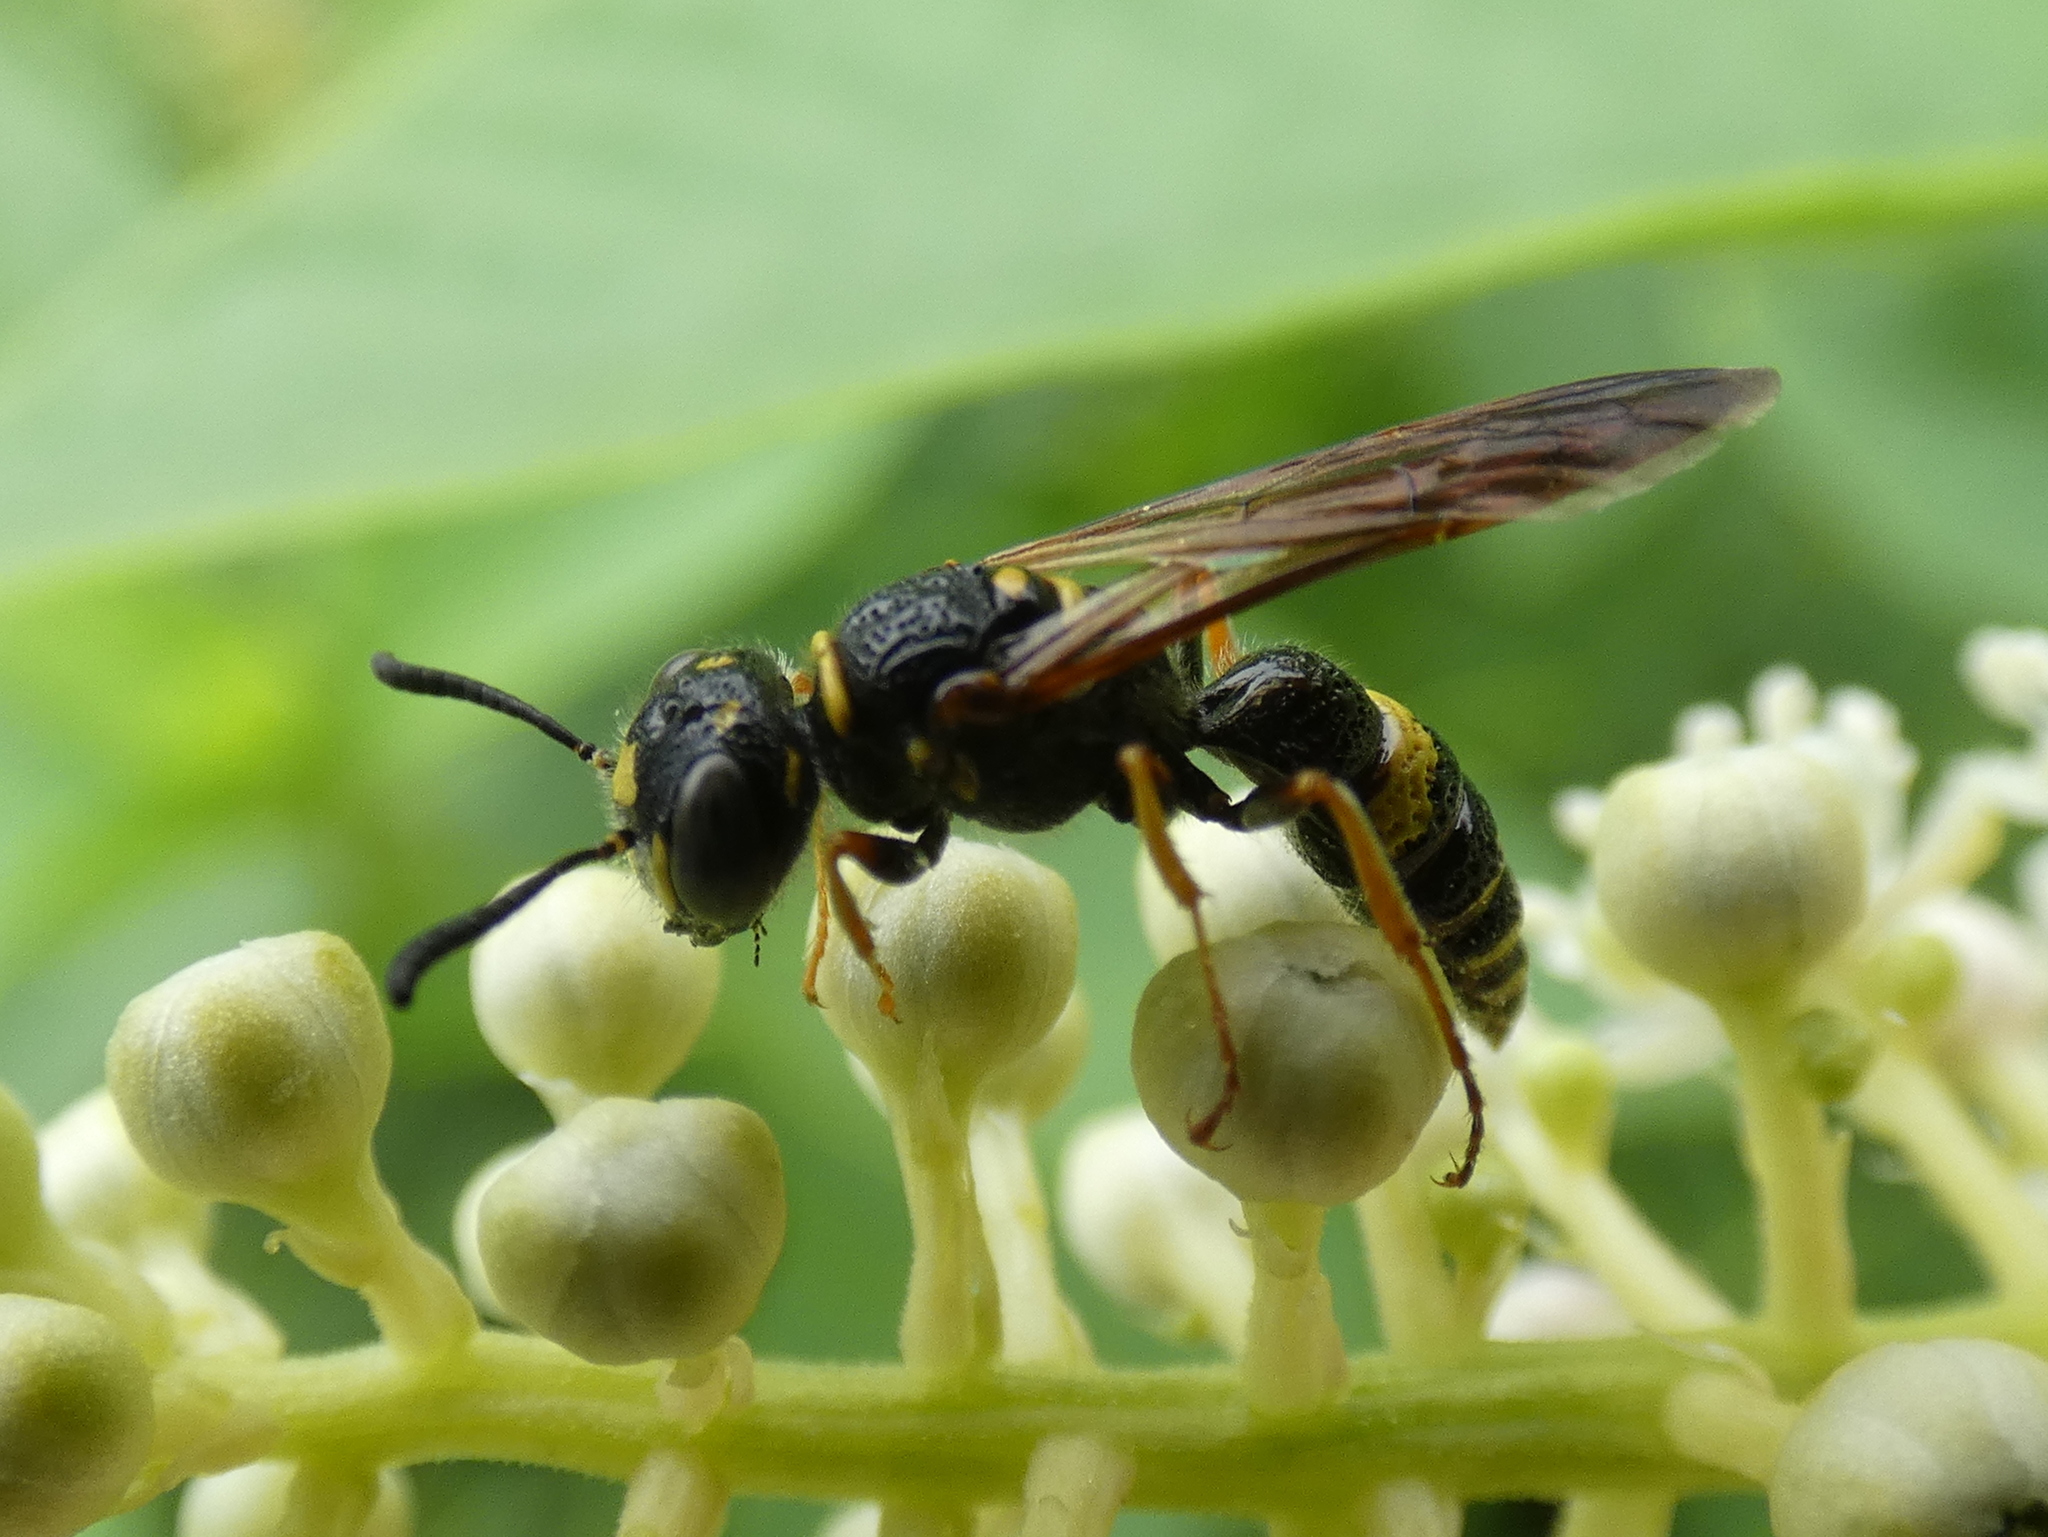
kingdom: Animalia
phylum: Arthropoda
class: Insecta
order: Hymenoptera
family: Crabronidae
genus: Philanthus
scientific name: Philanthus gibbosus
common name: Humped beewolf
